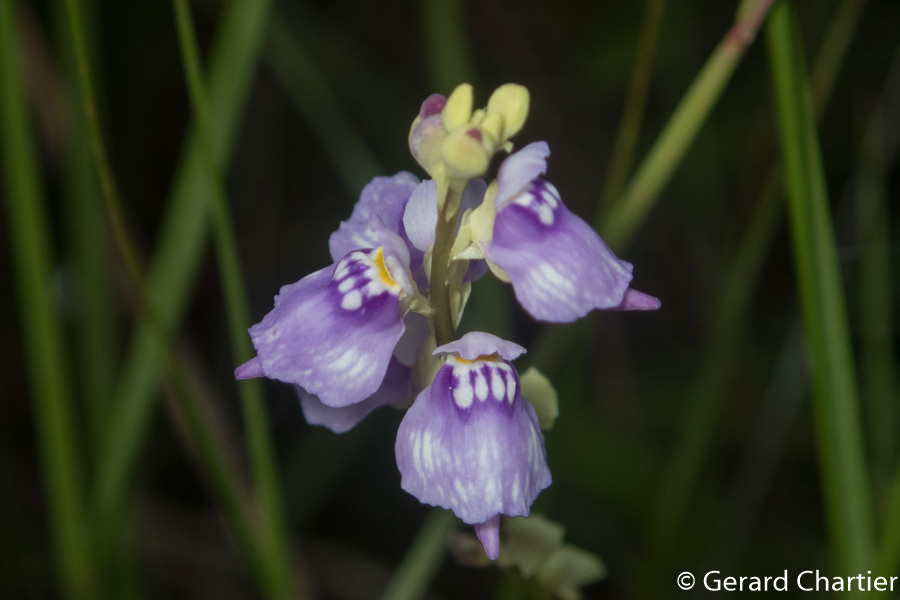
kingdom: Plantae
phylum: Tracheophyta
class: Magnoliopsida
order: Lamiales
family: Lentibulariaceae
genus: Utricularia
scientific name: Utricularia caerulea
